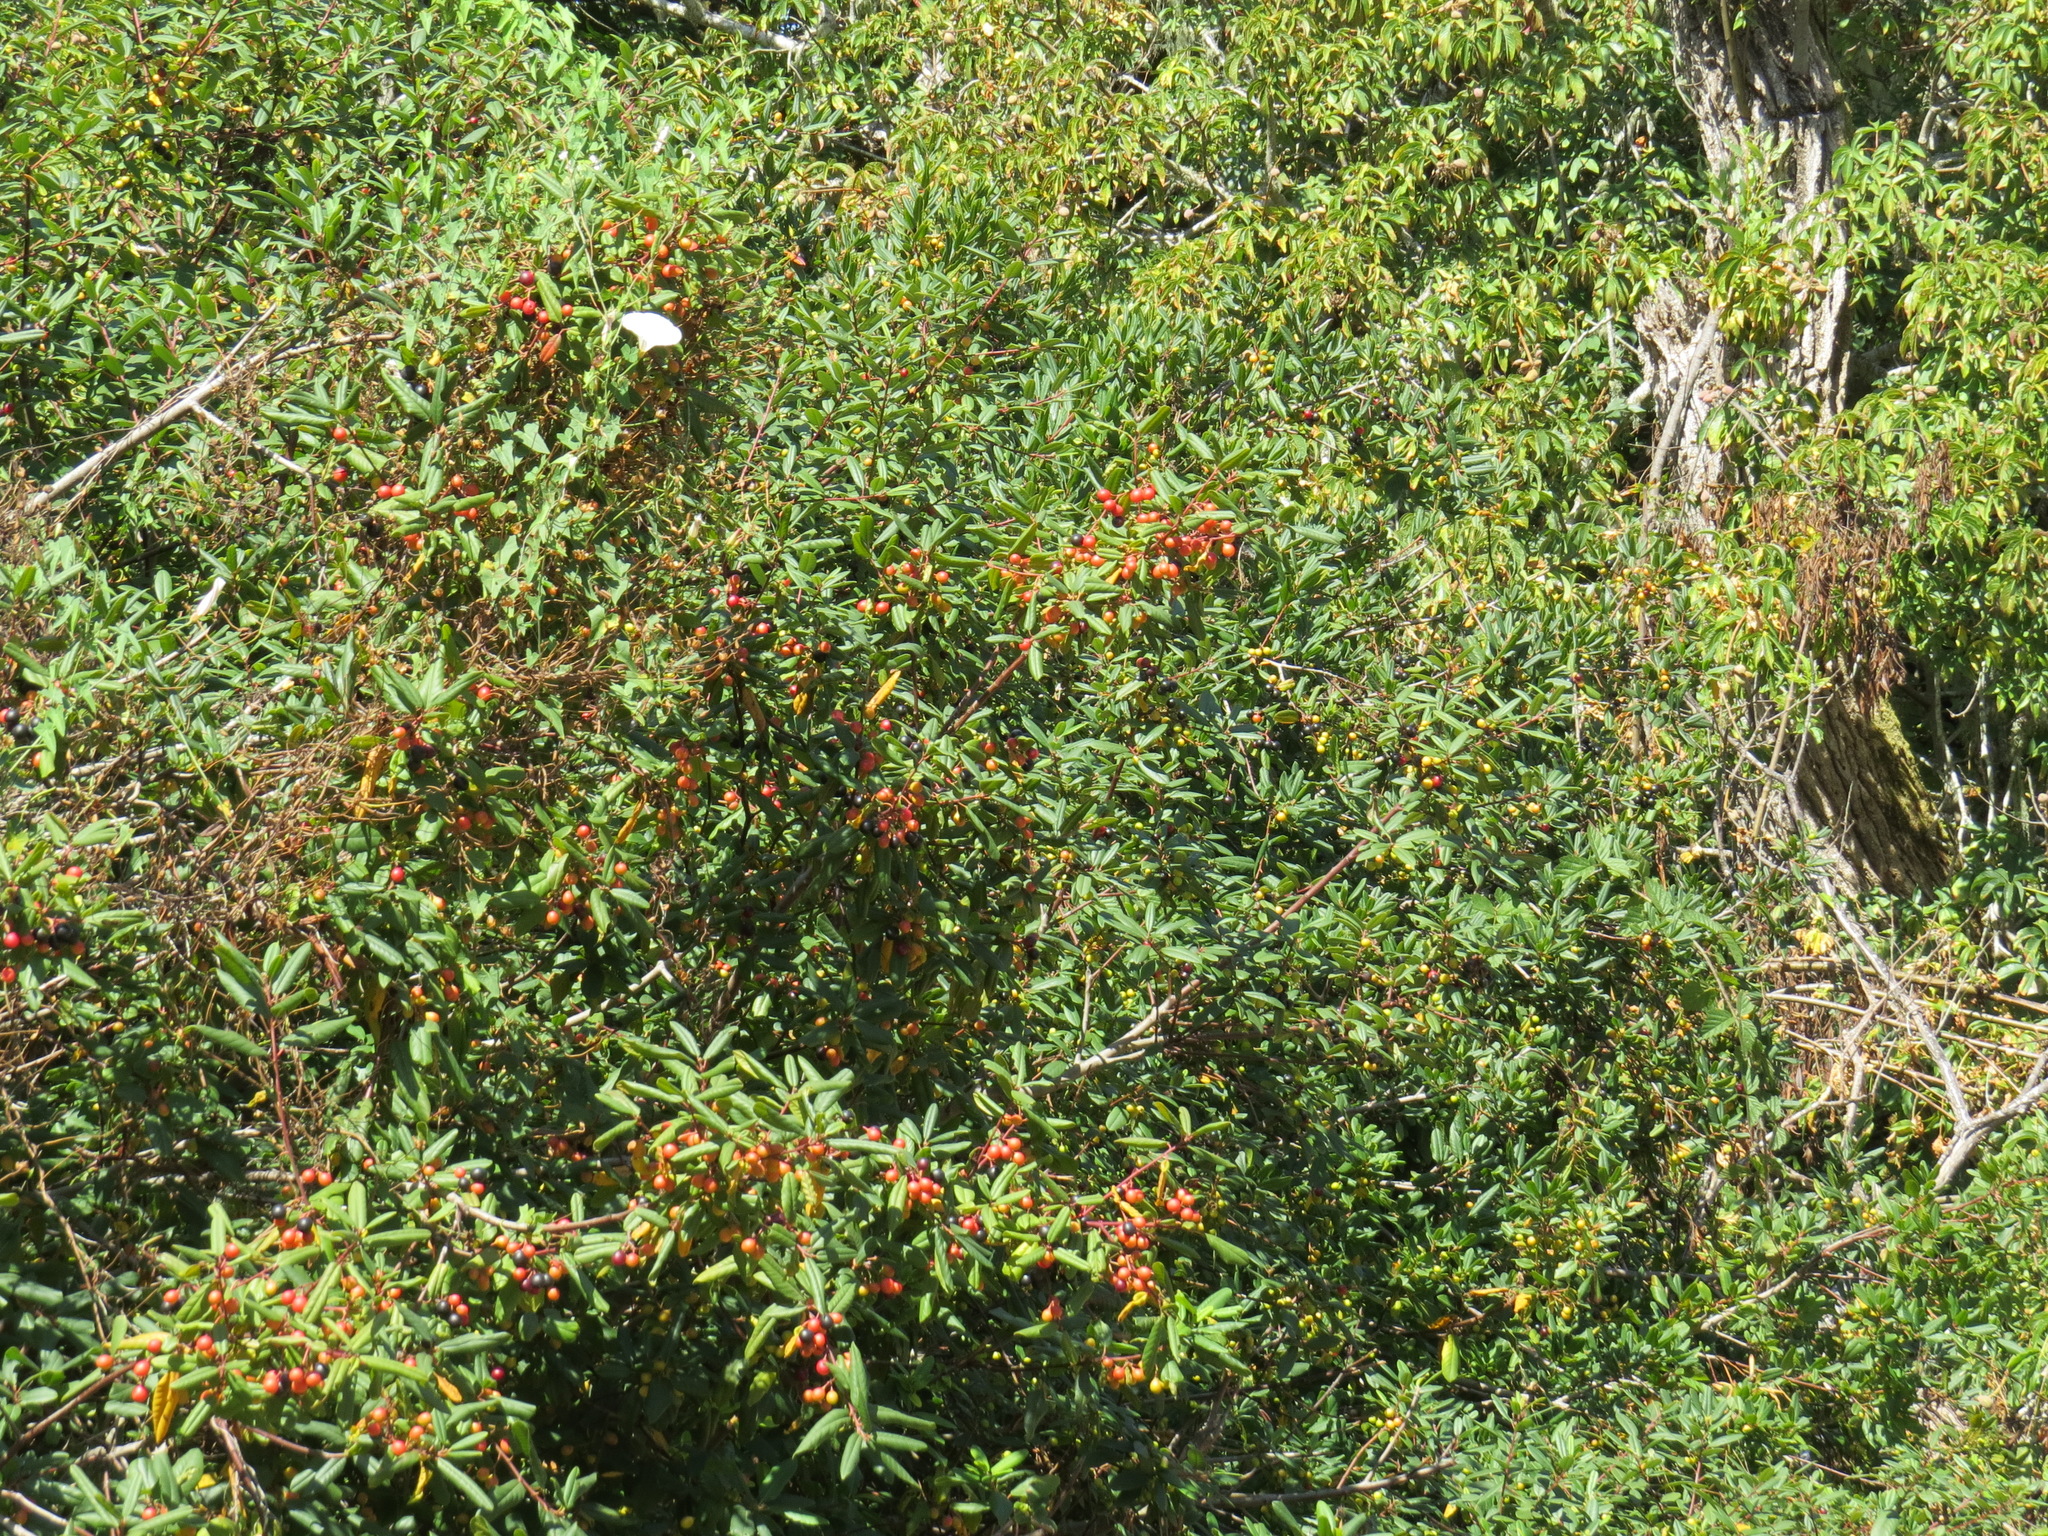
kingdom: Plantae
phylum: Tracheophyta
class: Magnoliopsida
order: Rosales
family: Rhamnaceae
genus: Frangula
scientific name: Frangula californica
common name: California buckthorn
